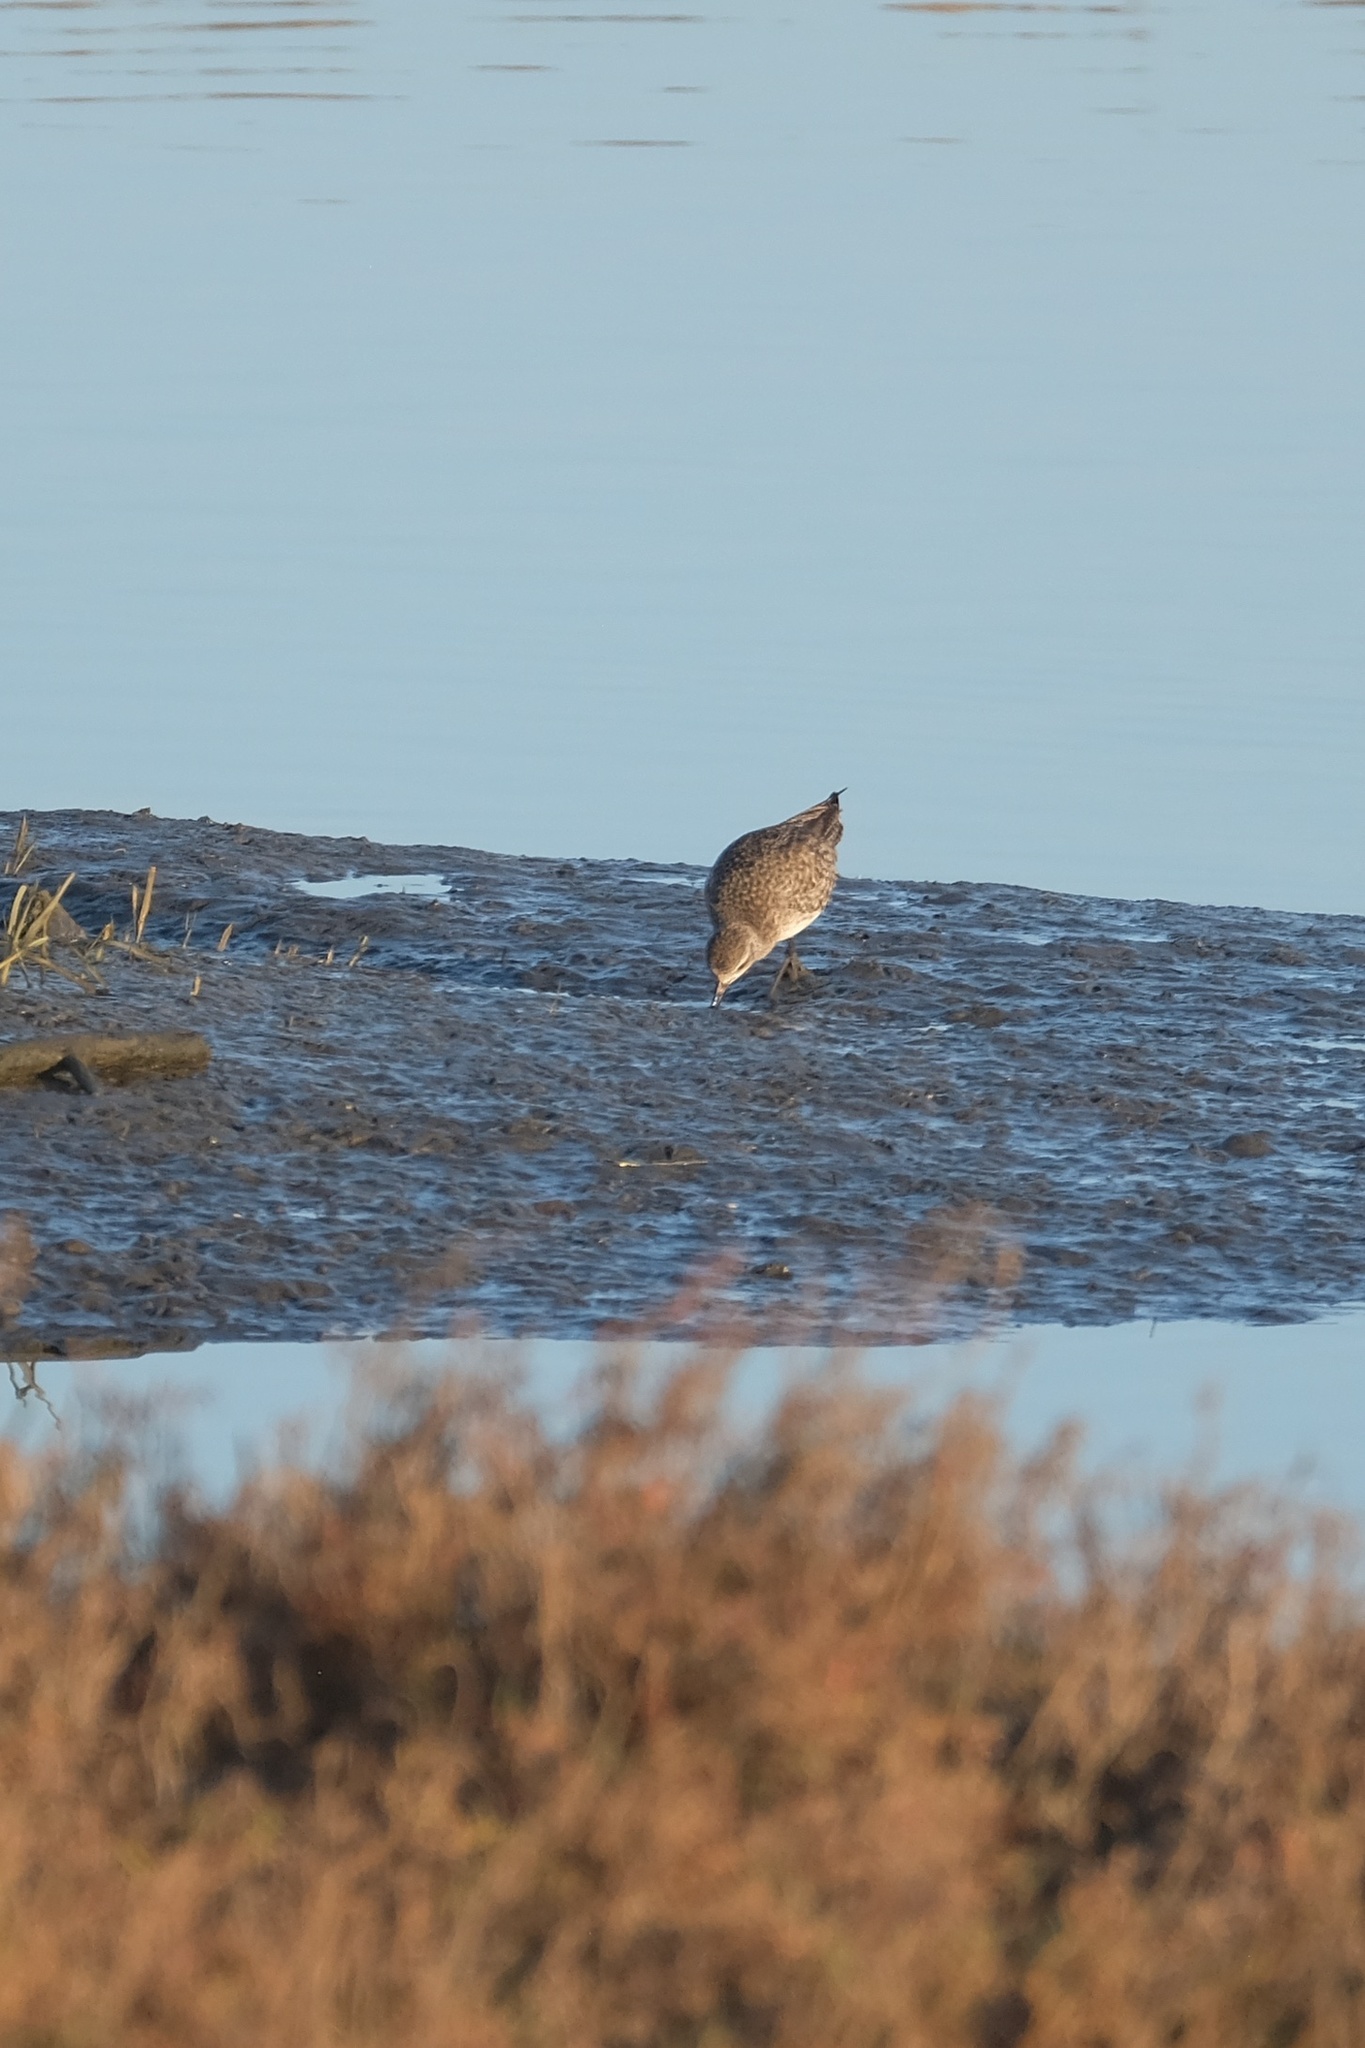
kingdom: Animalia
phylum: Chordata
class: Aves
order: Charadriiformes
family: Charadriidae
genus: Pluvialis
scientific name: Pluvialis squatarola
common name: Grey plover
